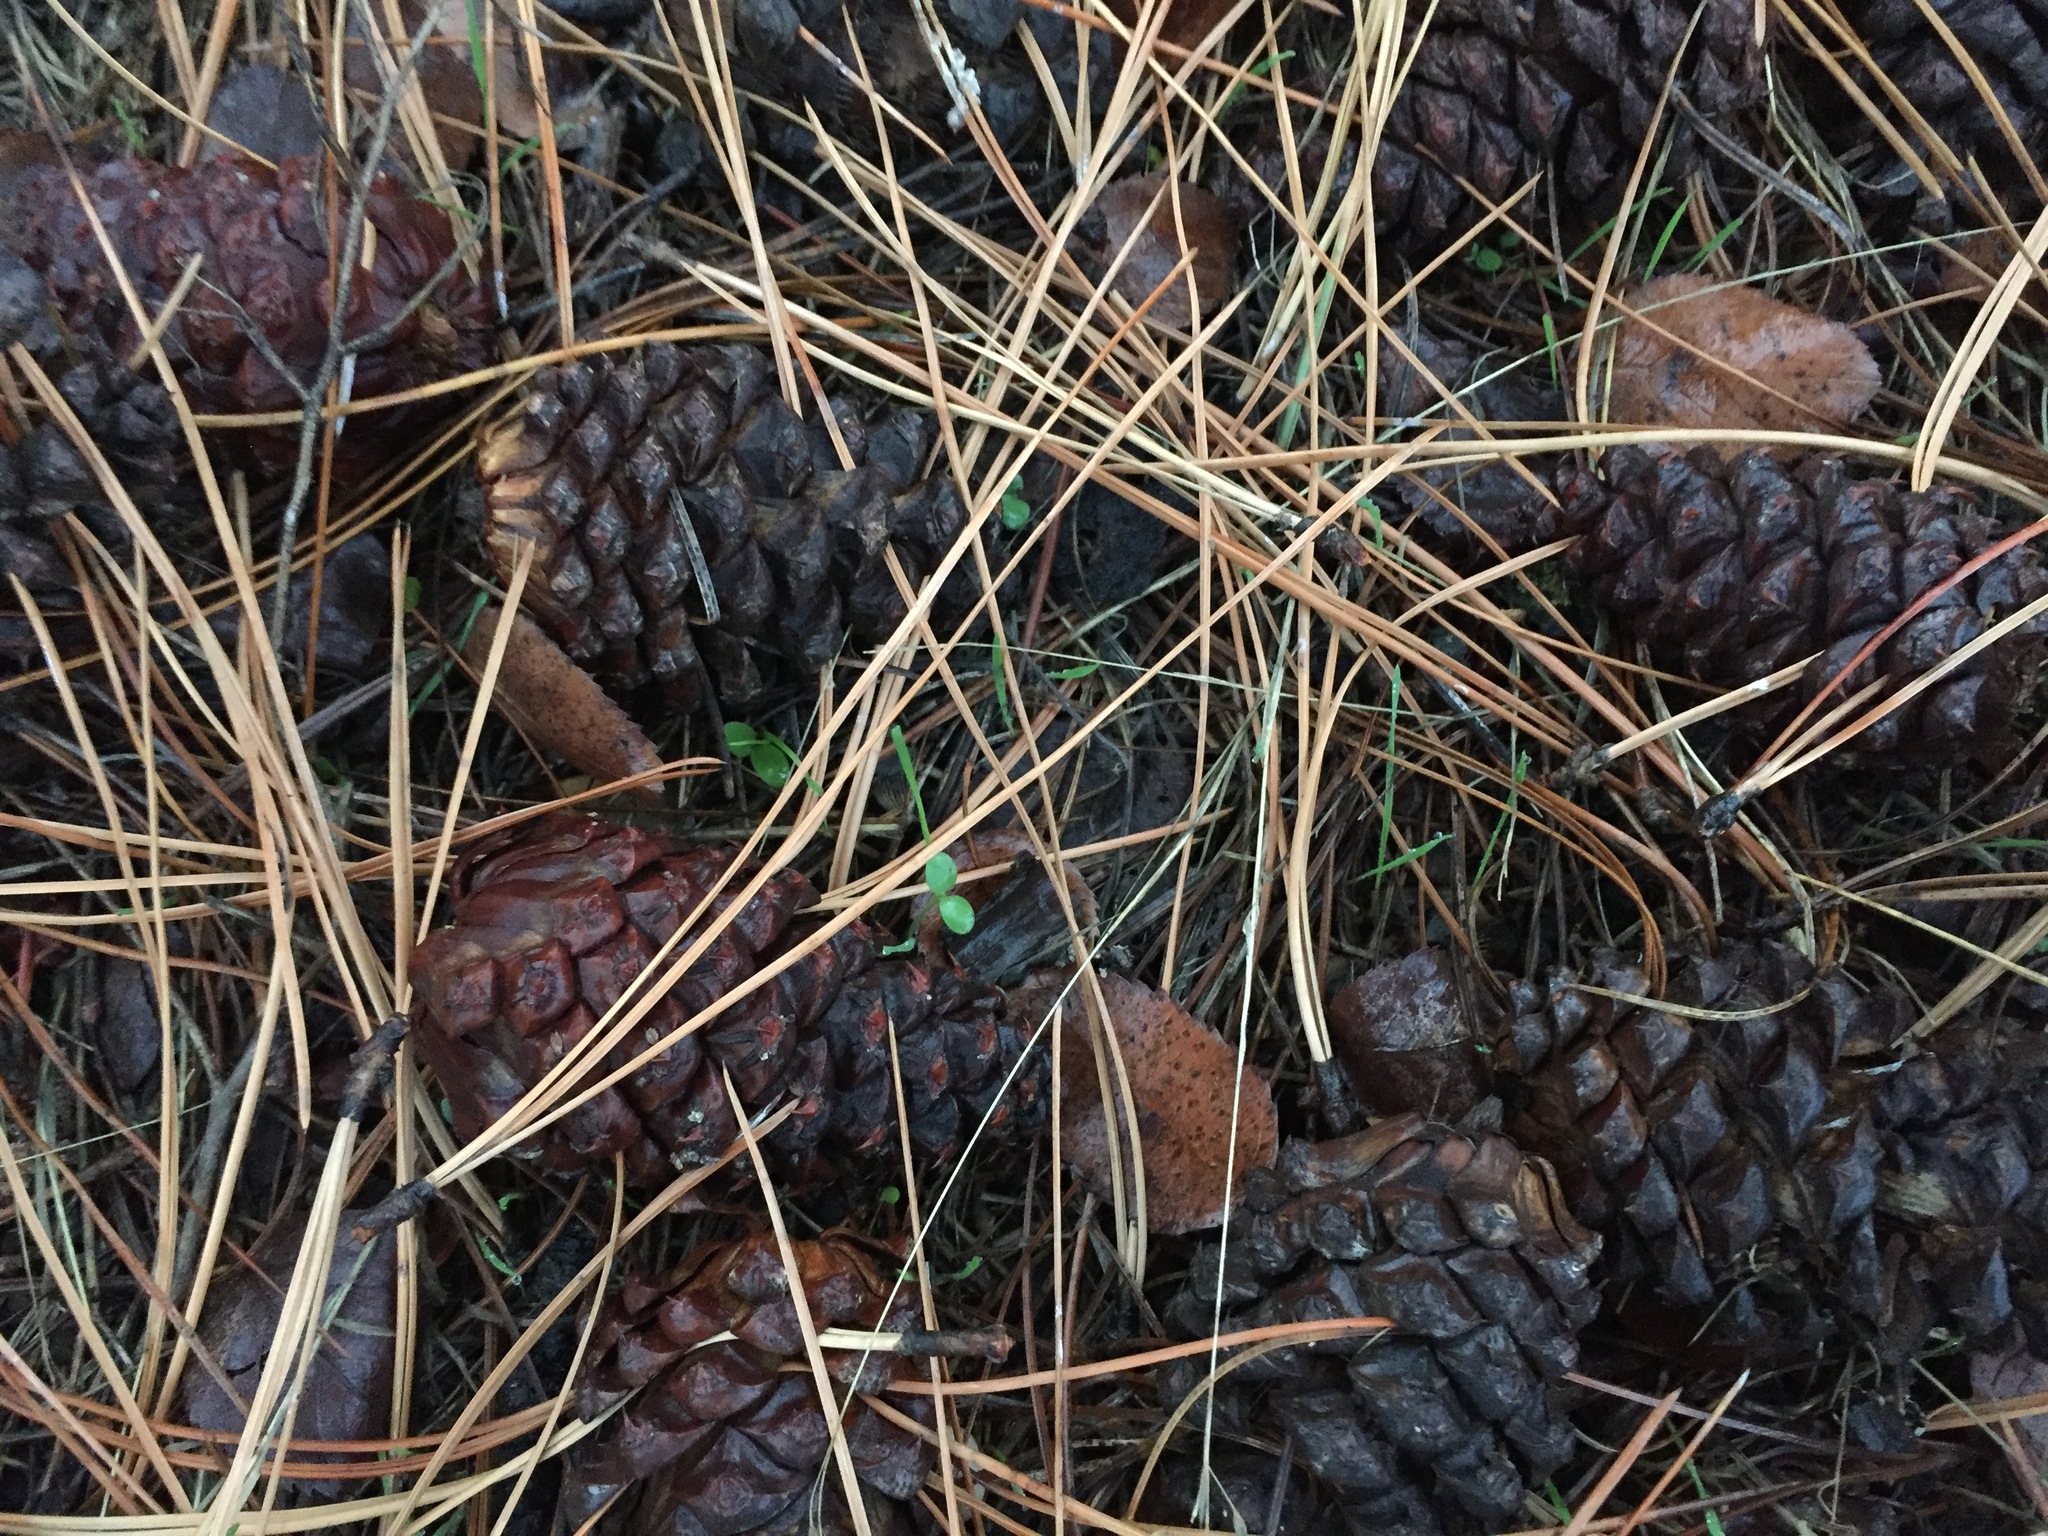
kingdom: Plantae
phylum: Tracheophyta
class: Pinopsida
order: Pinales
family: Pinaceae
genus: Pinus
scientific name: Pinus ponderosa
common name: Western yellow-pine
